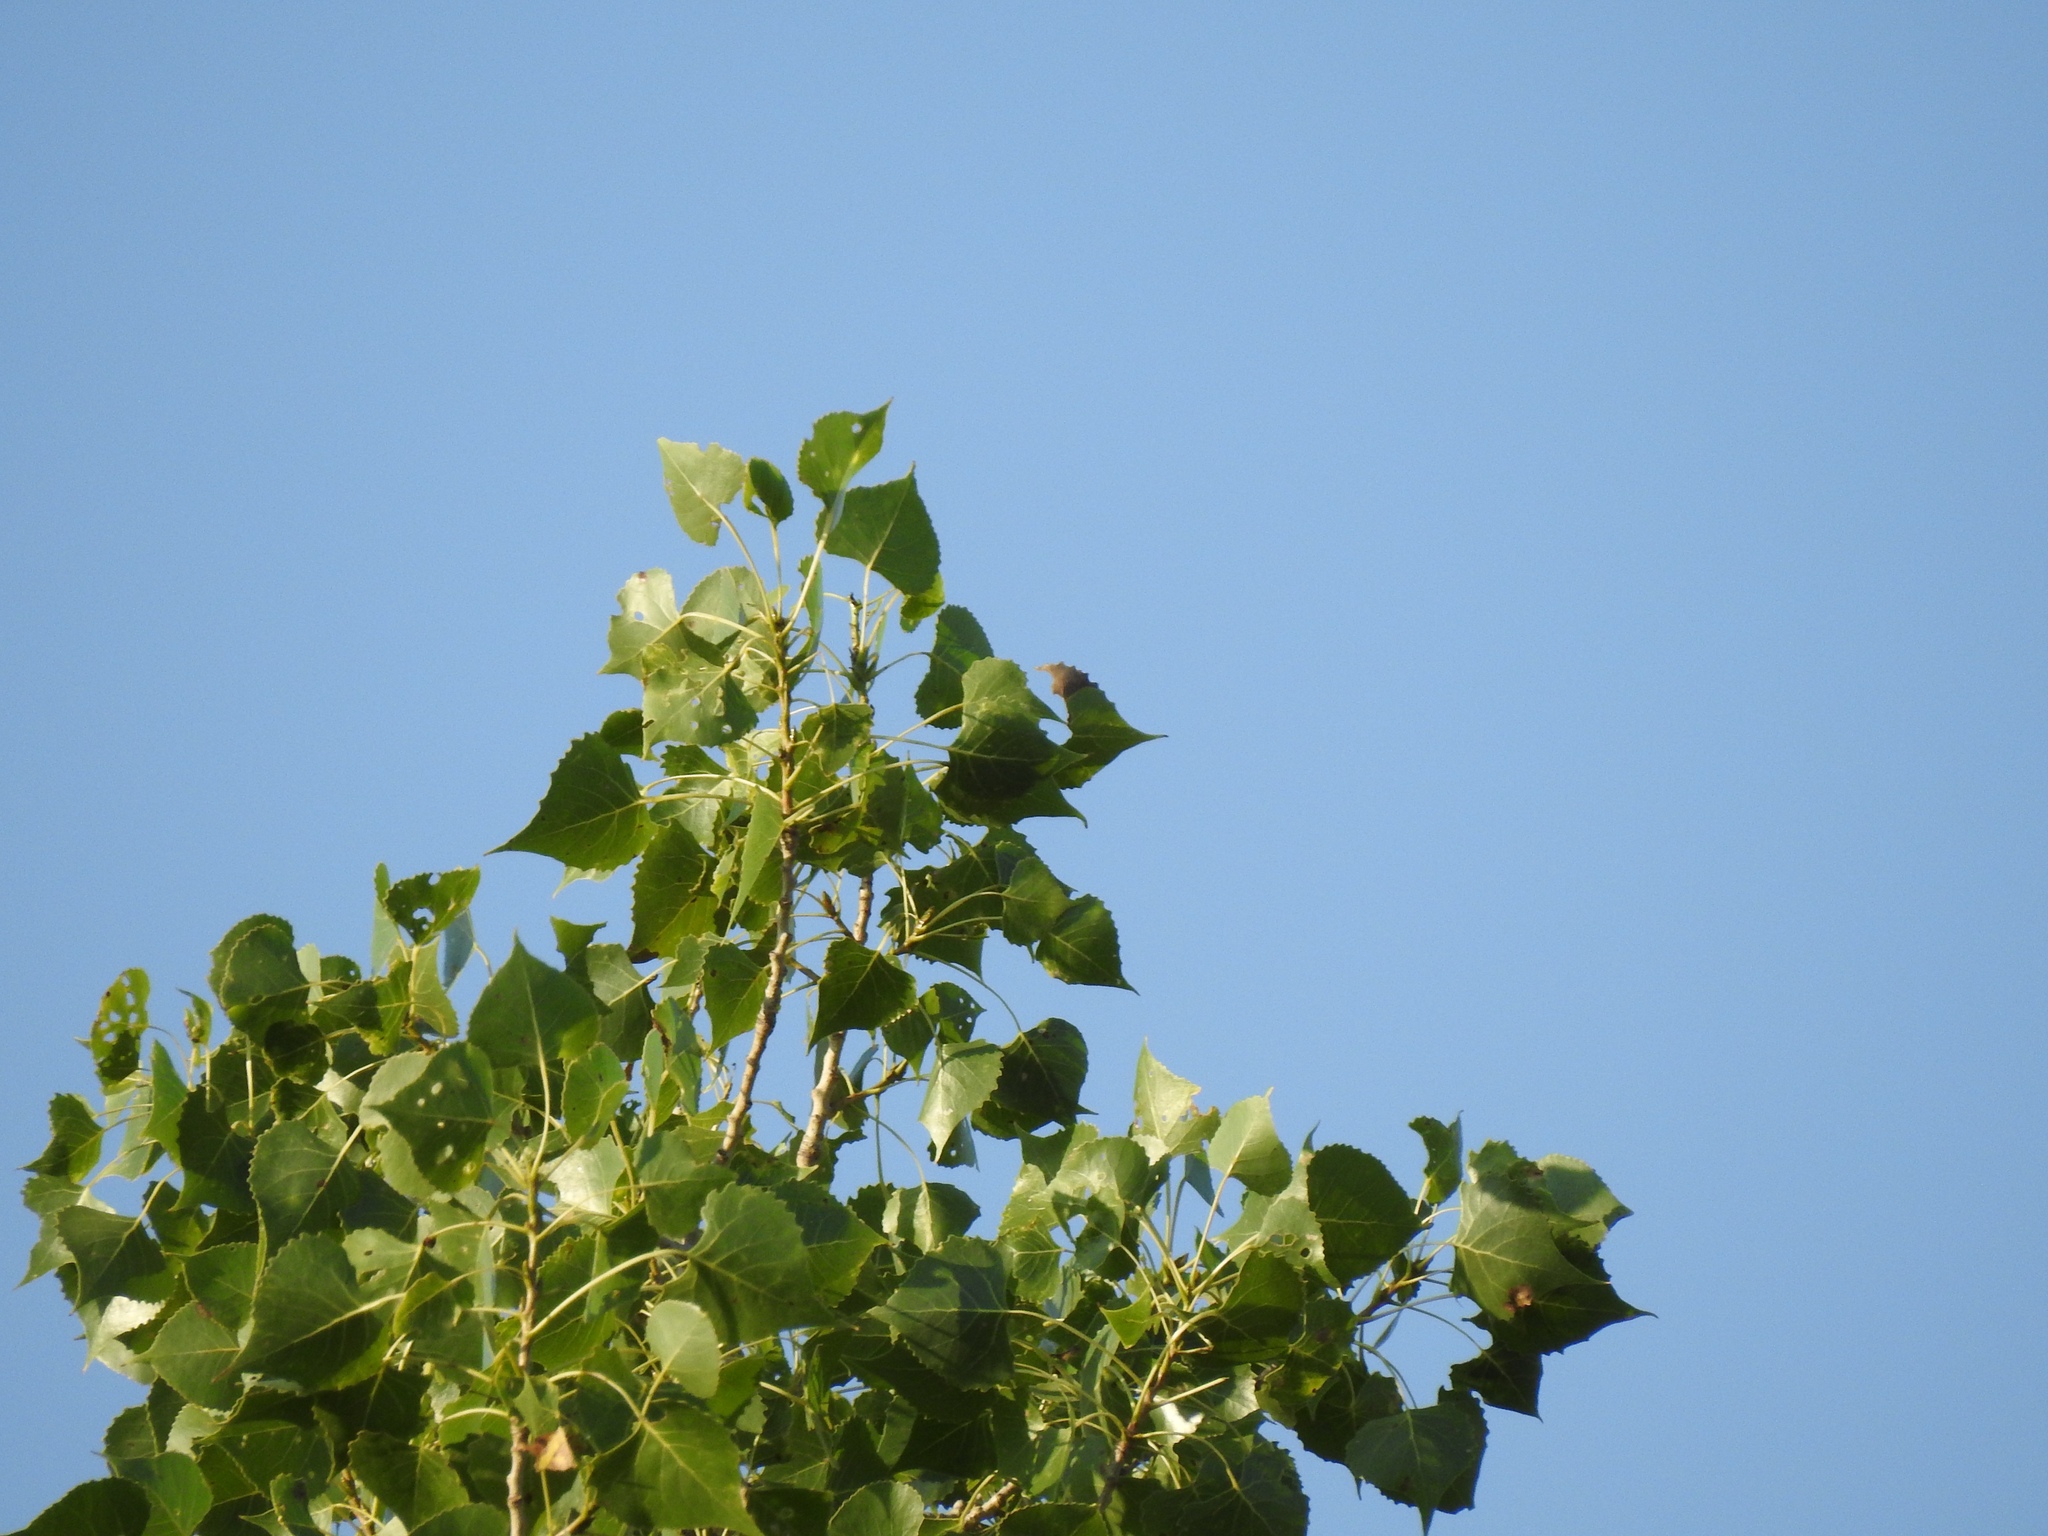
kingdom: Plantae
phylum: Tracheophyta
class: Magnoliopsida
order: Malpighiales
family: Salicaceae
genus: Populus
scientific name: Populus deltoides
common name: Eastern cottonwood
